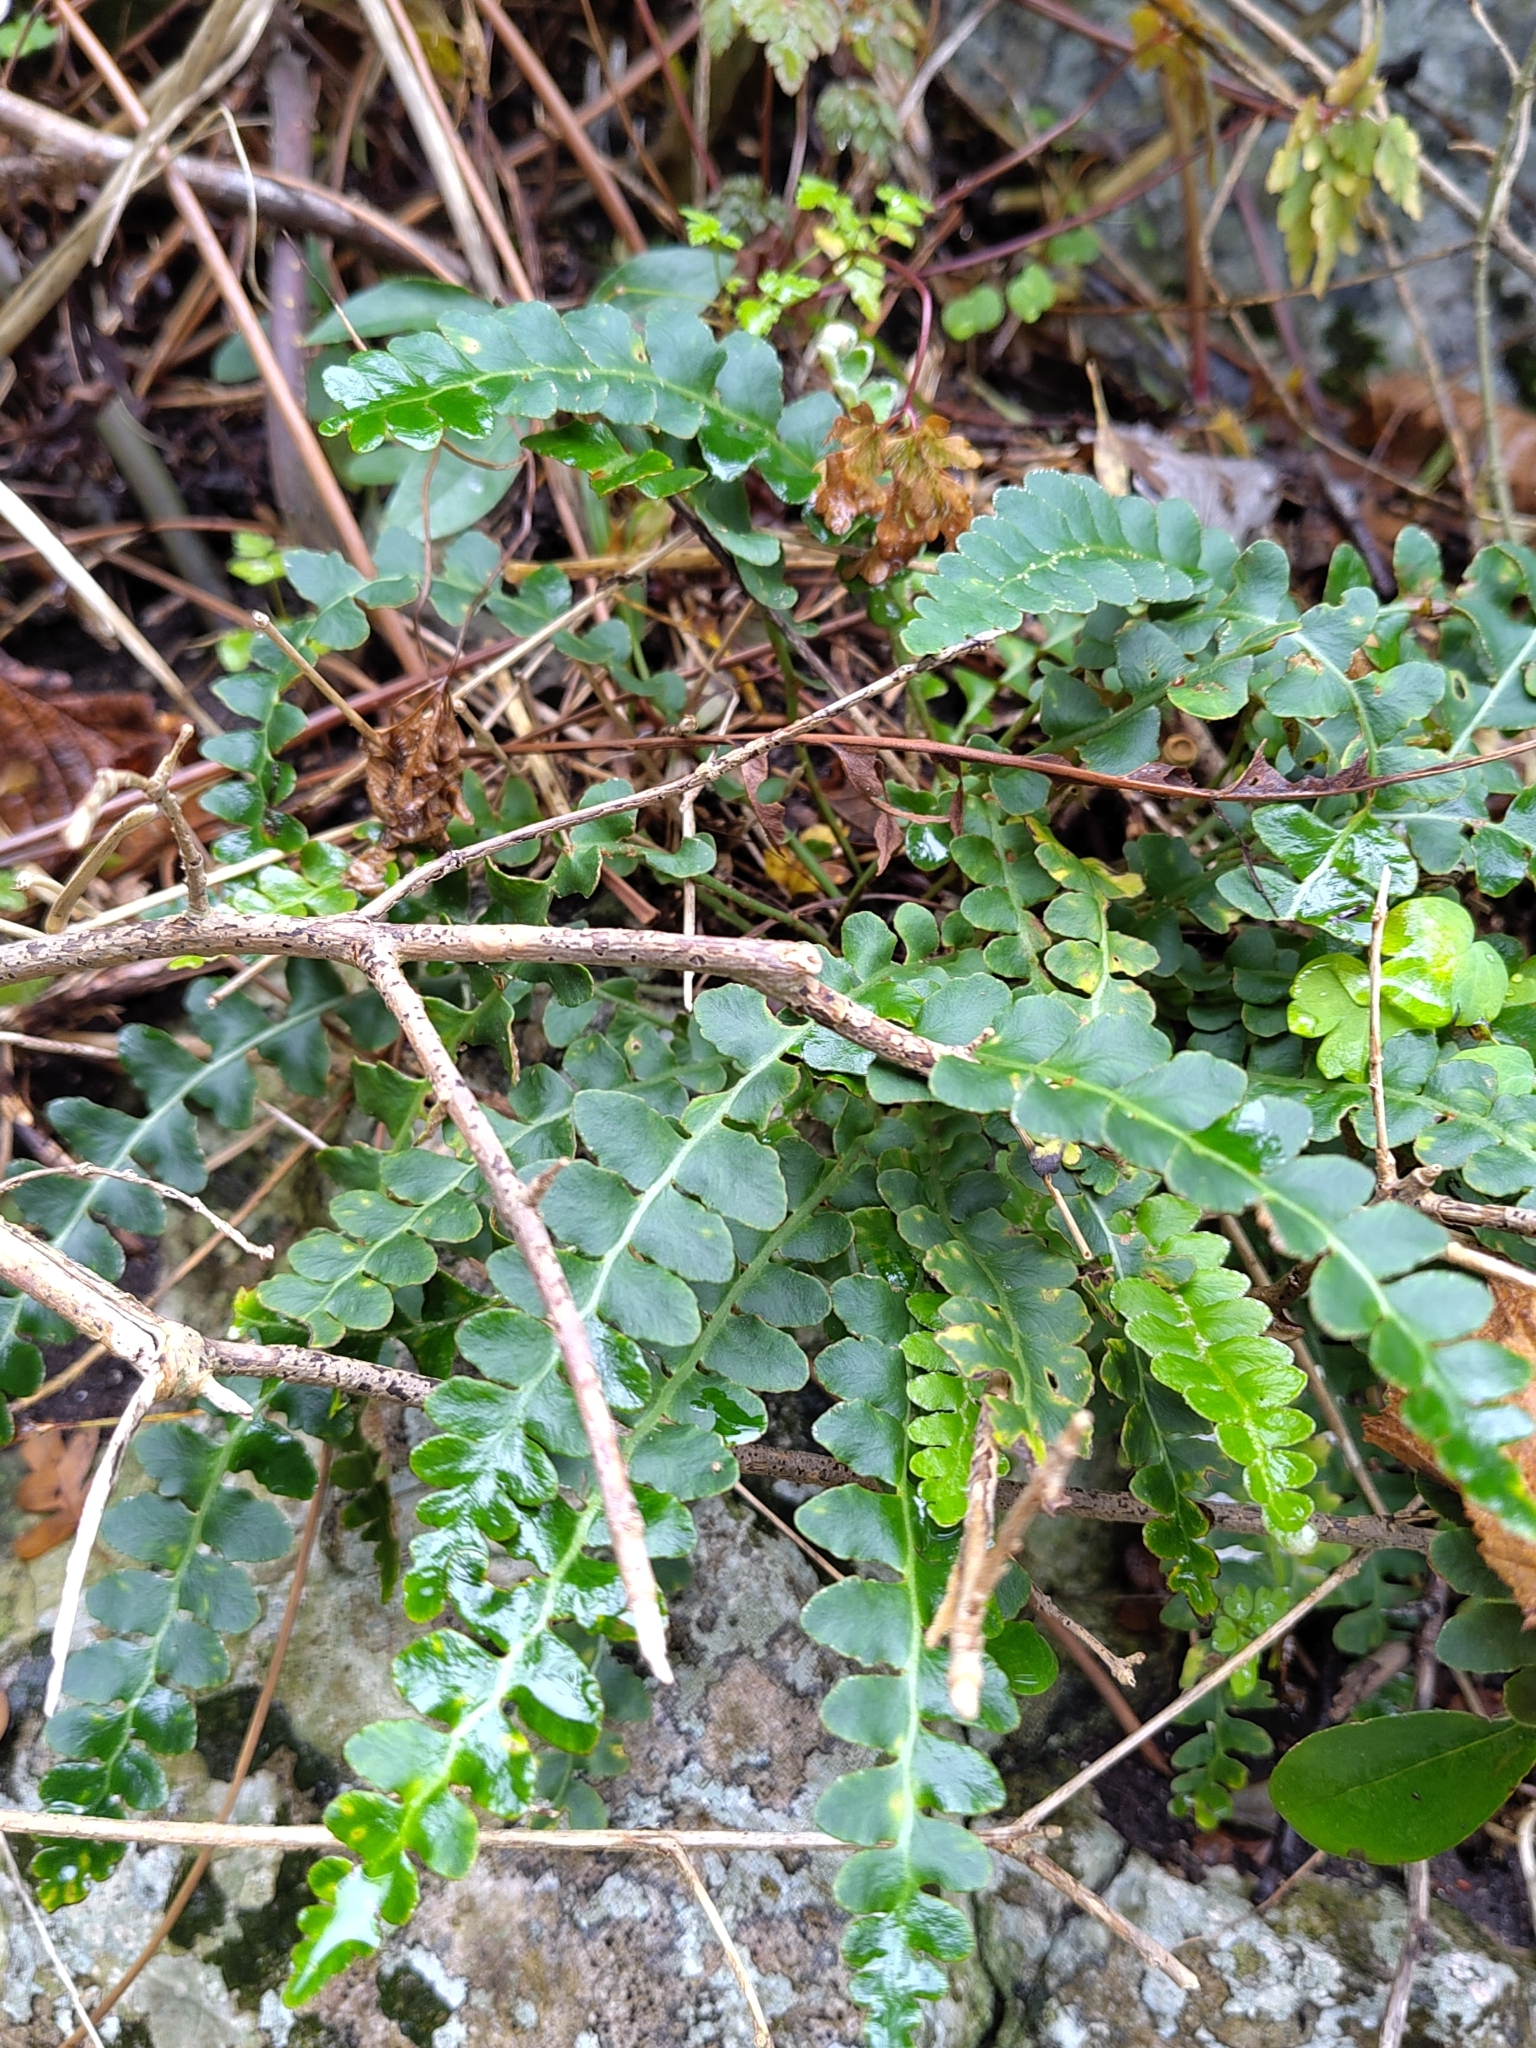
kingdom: Plantae
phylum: Tracheophyta
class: Polypodiopsida
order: Polypodiales
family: Aspleniaceae
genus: Asplenium
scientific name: Asplenium ceterach
